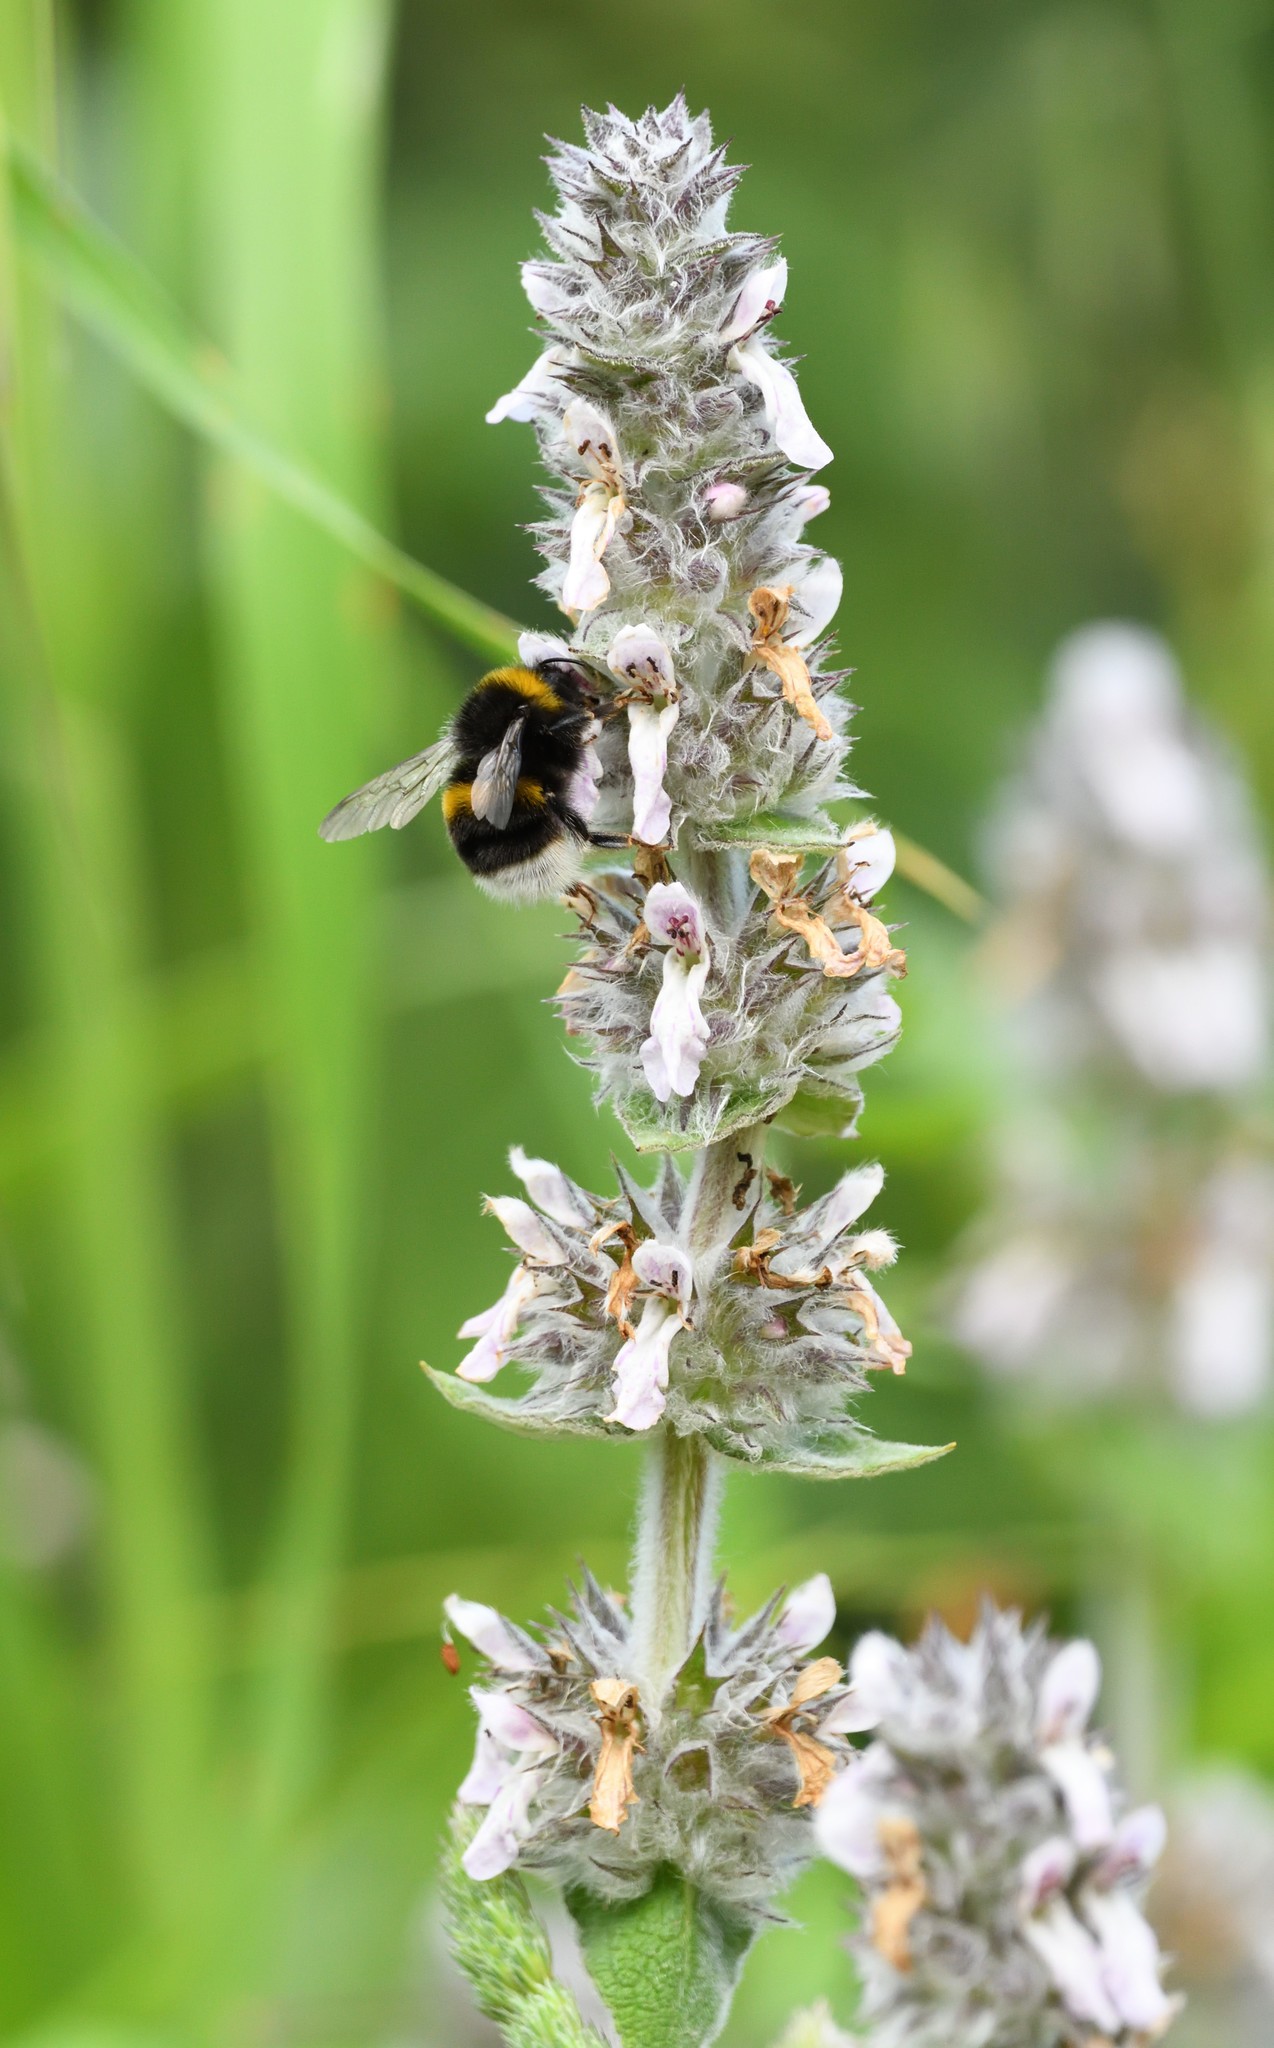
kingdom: Animalia
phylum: Arthropoda
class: Insecta
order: Hymenoptera
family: Apidae
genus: Bombus
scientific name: Bombus terrestris
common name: Buff-tailed bumblebee
